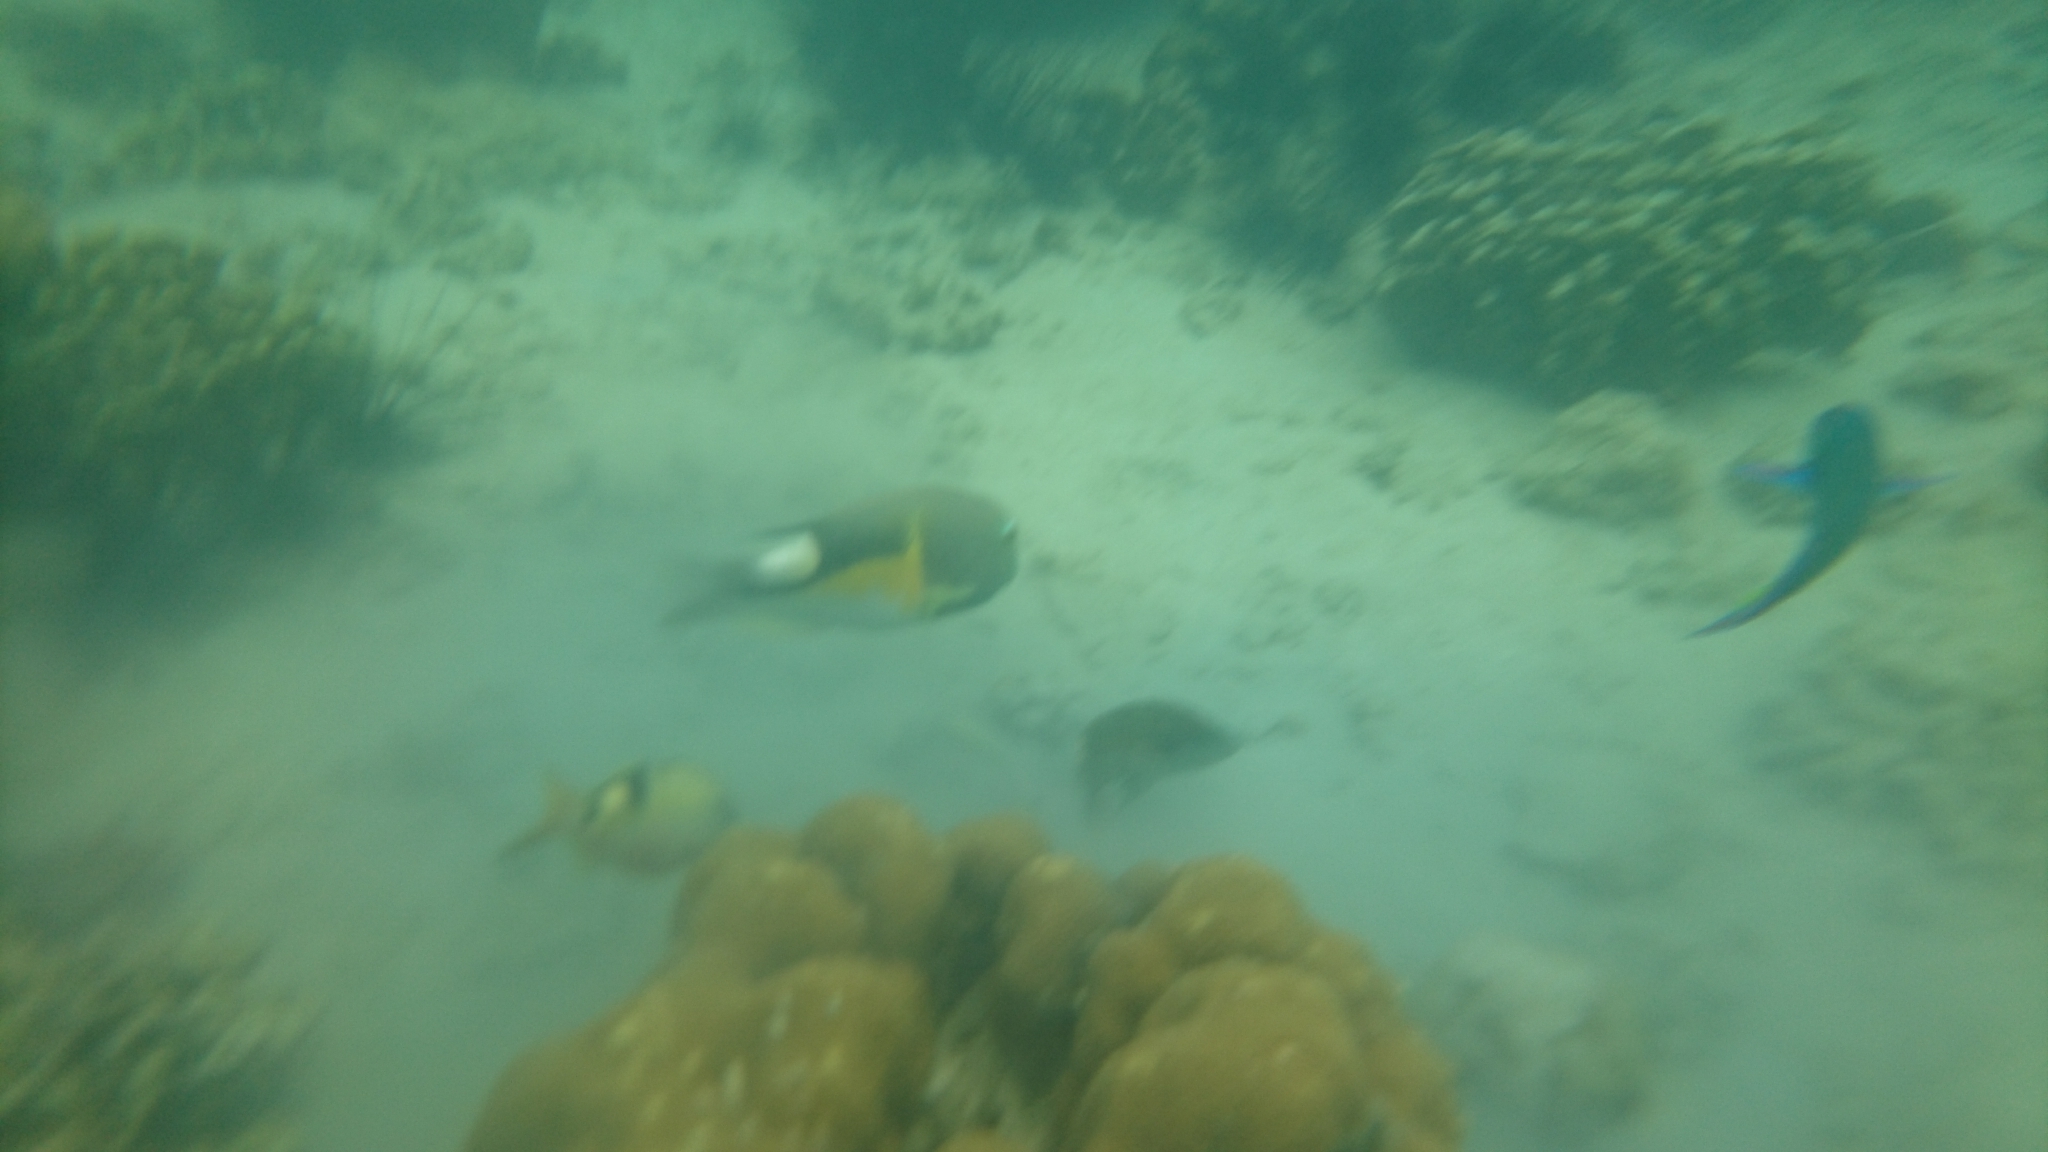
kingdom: Animalia
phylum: Chordata
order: Perciformes
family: Labridae
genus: Thalassoma
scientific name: Thalassoma lunare
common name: Blue wrasse
